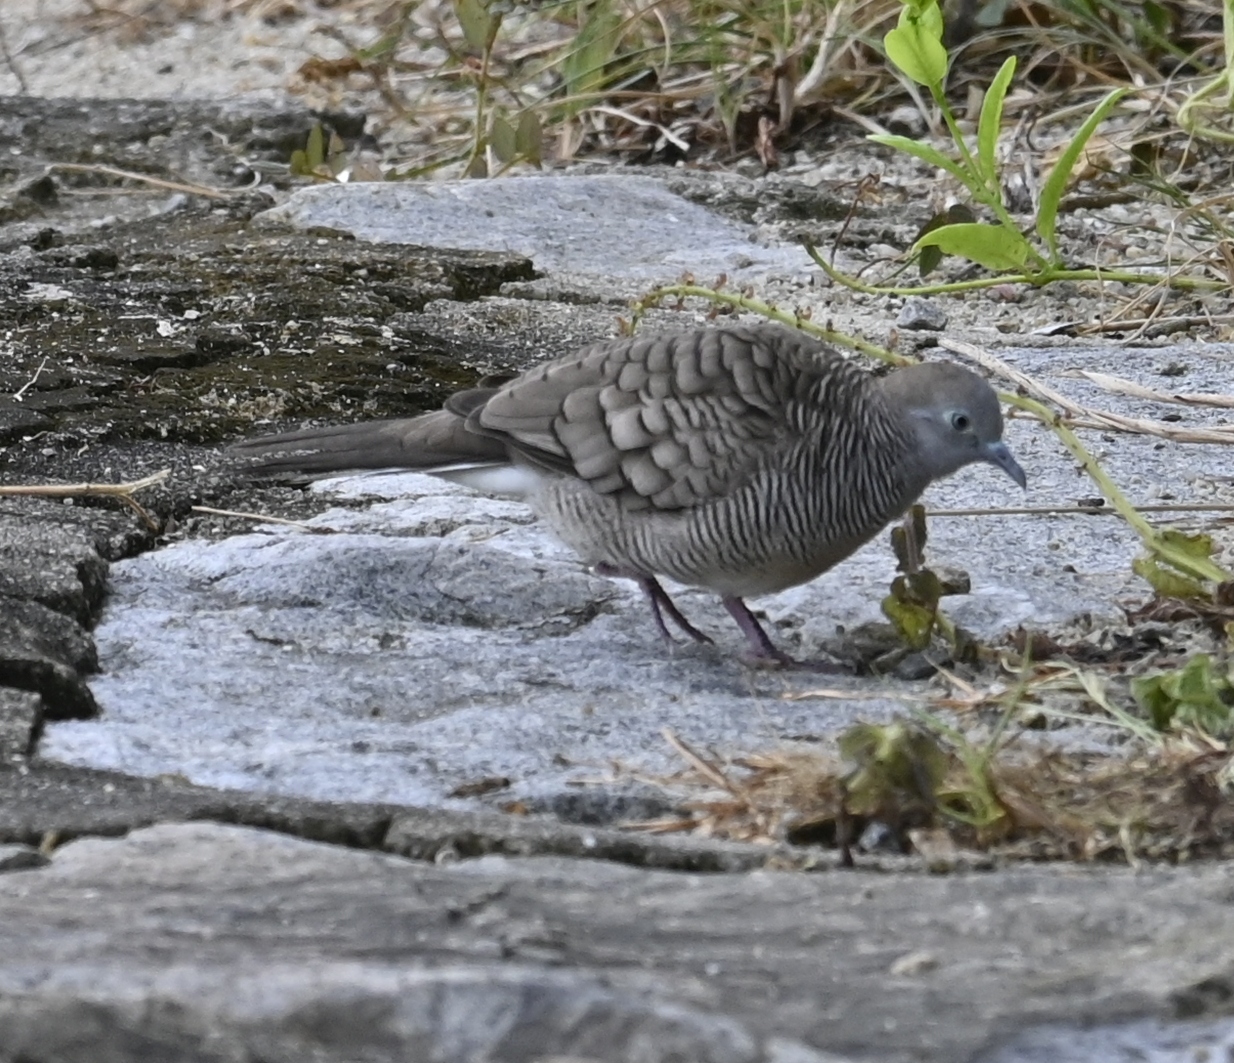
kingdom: Animalia
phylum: Chordata
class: Aves
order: Columbiformes
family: Columbidae
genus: Geopelia
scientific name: Geopelia striata
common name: Zebra dove
